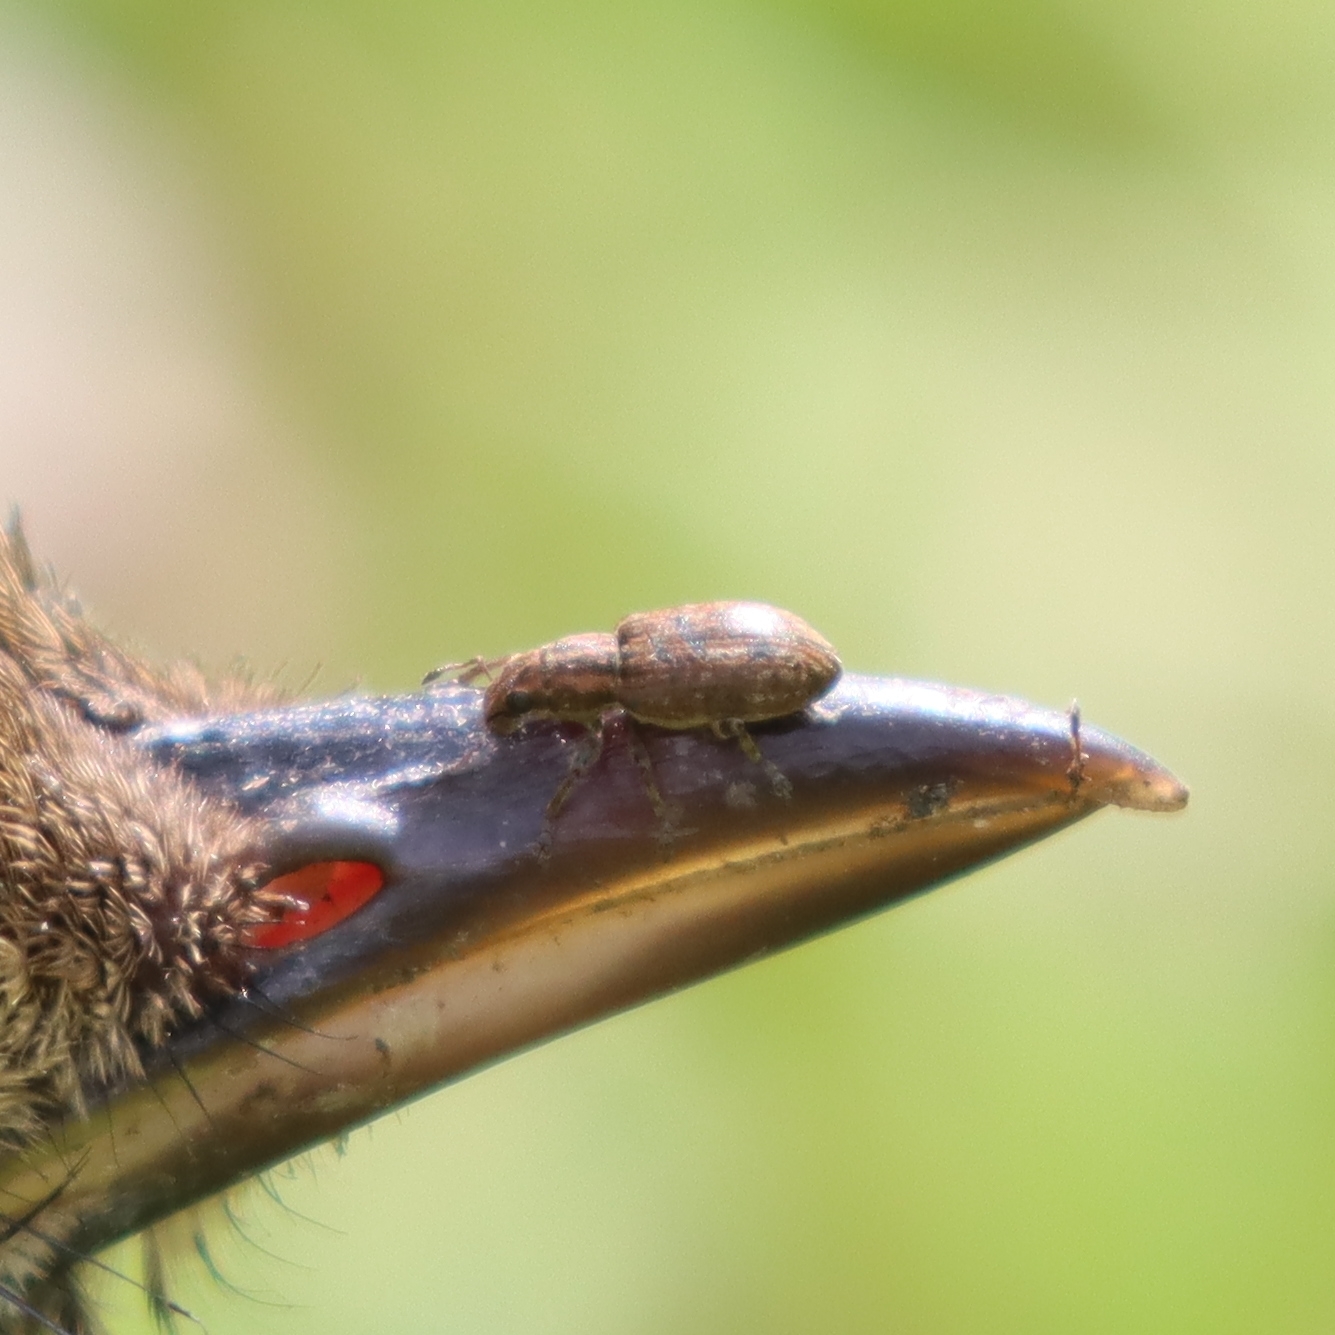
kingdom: Animalia
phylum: Arthropoda
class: Insecta
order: Coleoptera
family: Curculionidae
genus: Sitona
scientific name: Sitona obsoletus
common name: Weevil
